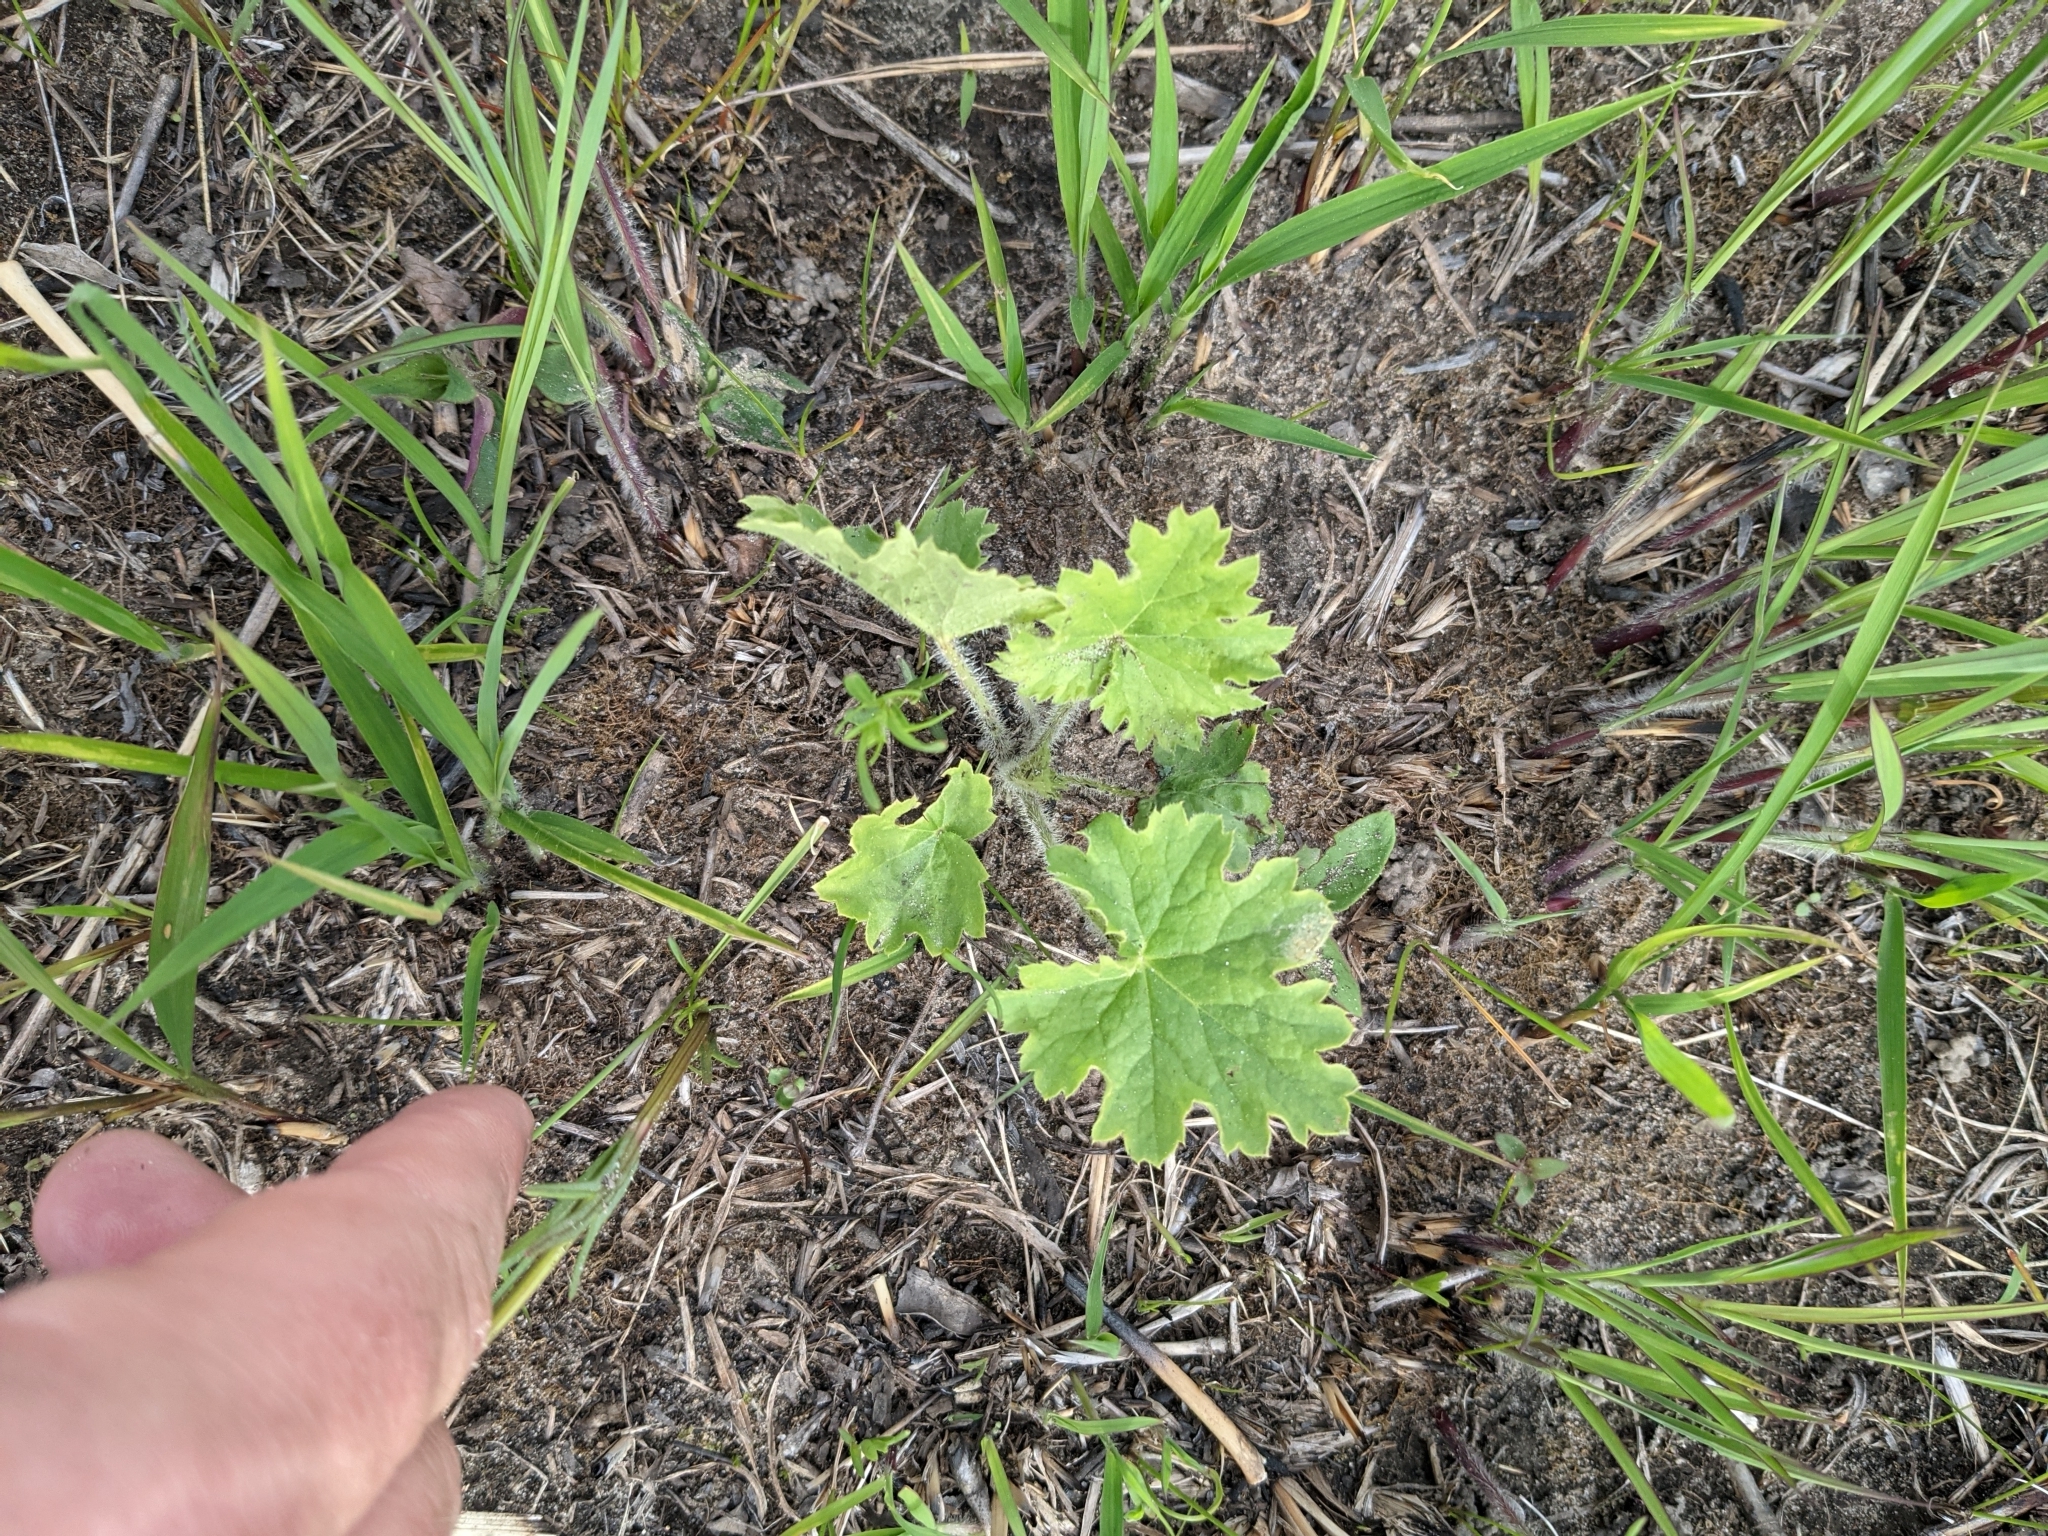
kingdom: Plantae
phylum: Tracheophyta
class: Magnoliopsida
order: Saxifragales
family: Saxifragaceae
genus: Heuchera
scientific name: Heuchera richardsonii
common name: Richardson's alumroot
